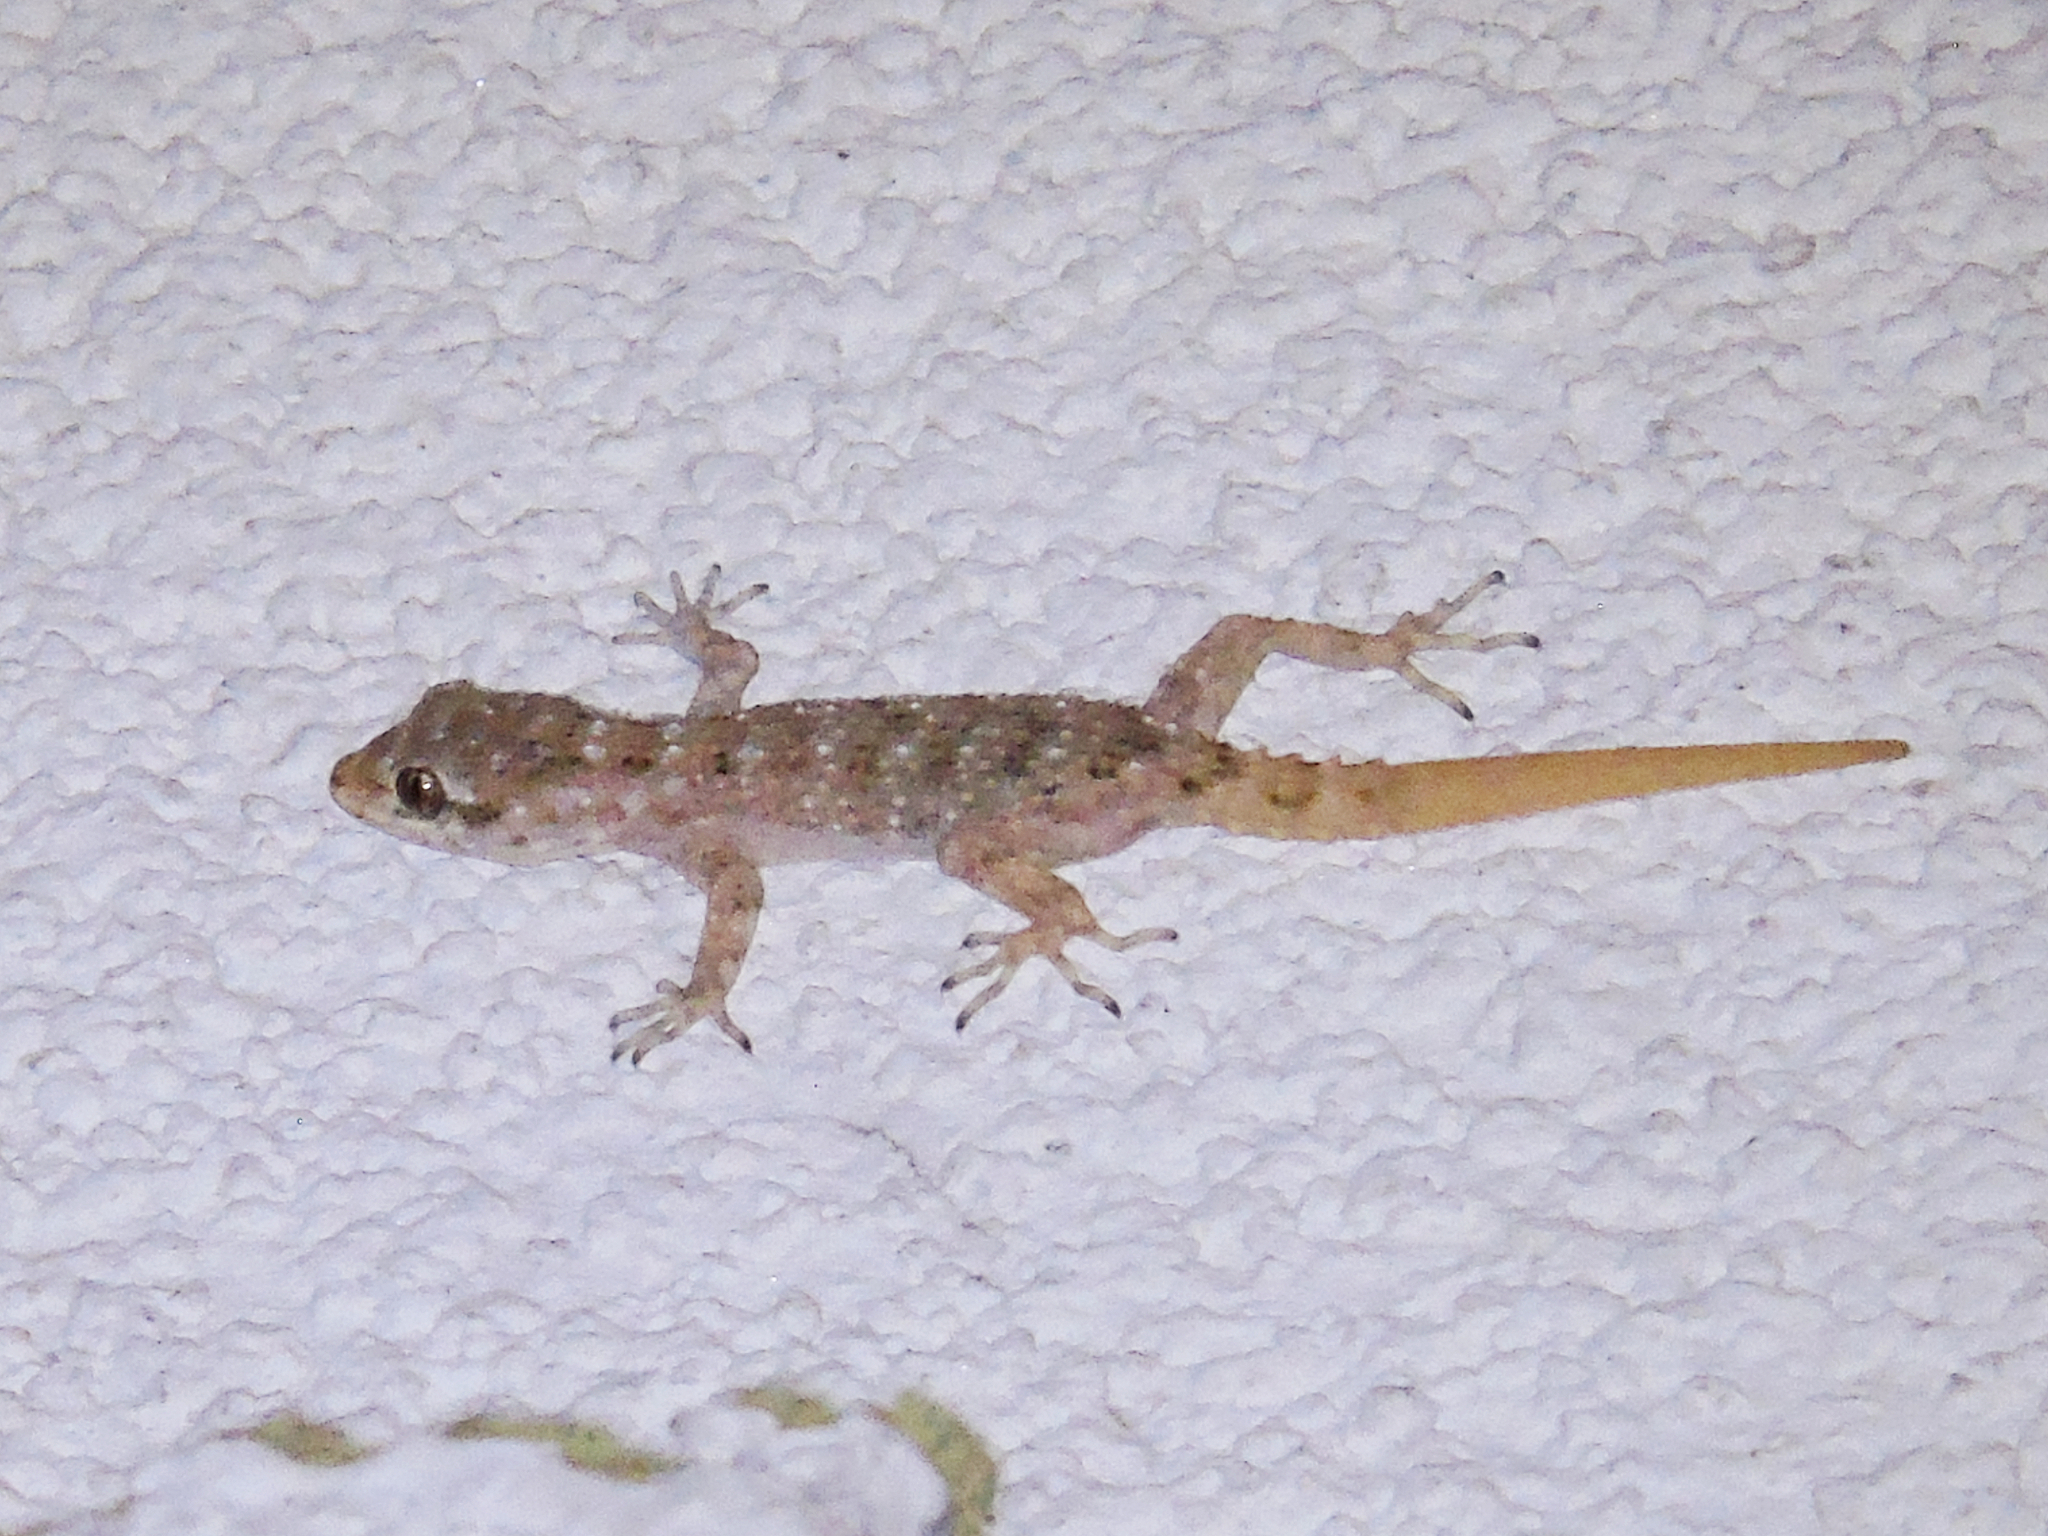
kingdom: Animalia
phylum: Chordata
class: Squamata
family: Gekkonidae
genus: Mediodactylus
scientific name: Mediodactylus kotschyi
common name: Kotschy's gecko
